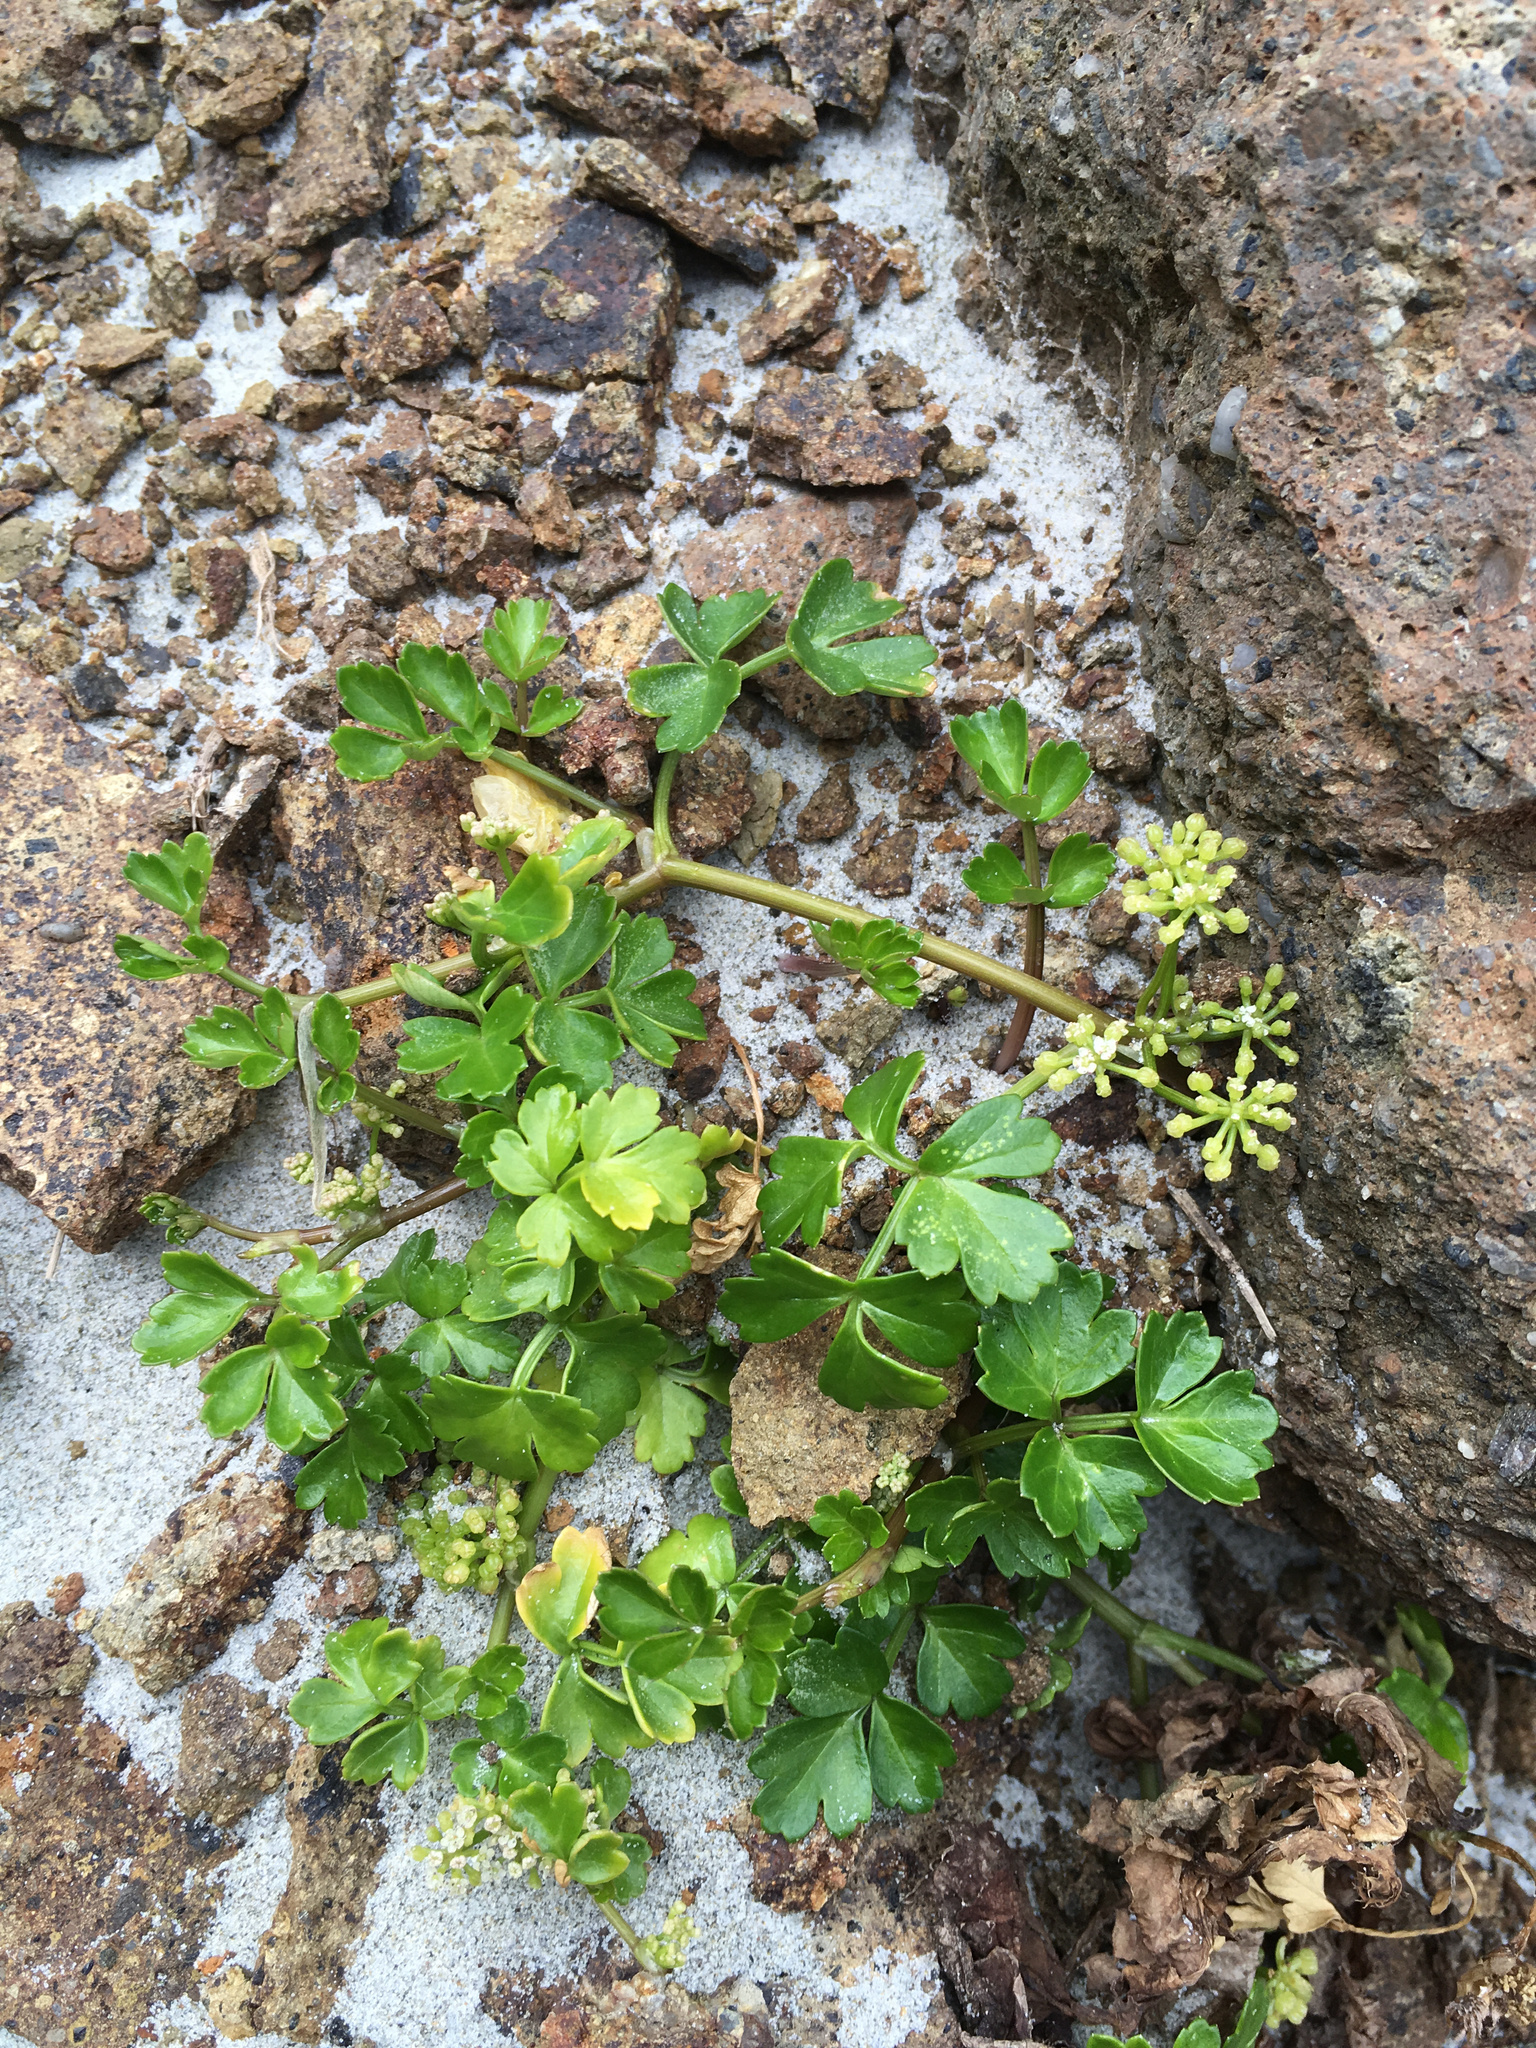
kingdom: Plantae
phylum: Tracheophyta
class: Magnoliopsida
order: Apiales
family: Apiaceae
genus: Apium
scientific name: Apium prostratum
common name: Prostrate marshwort
